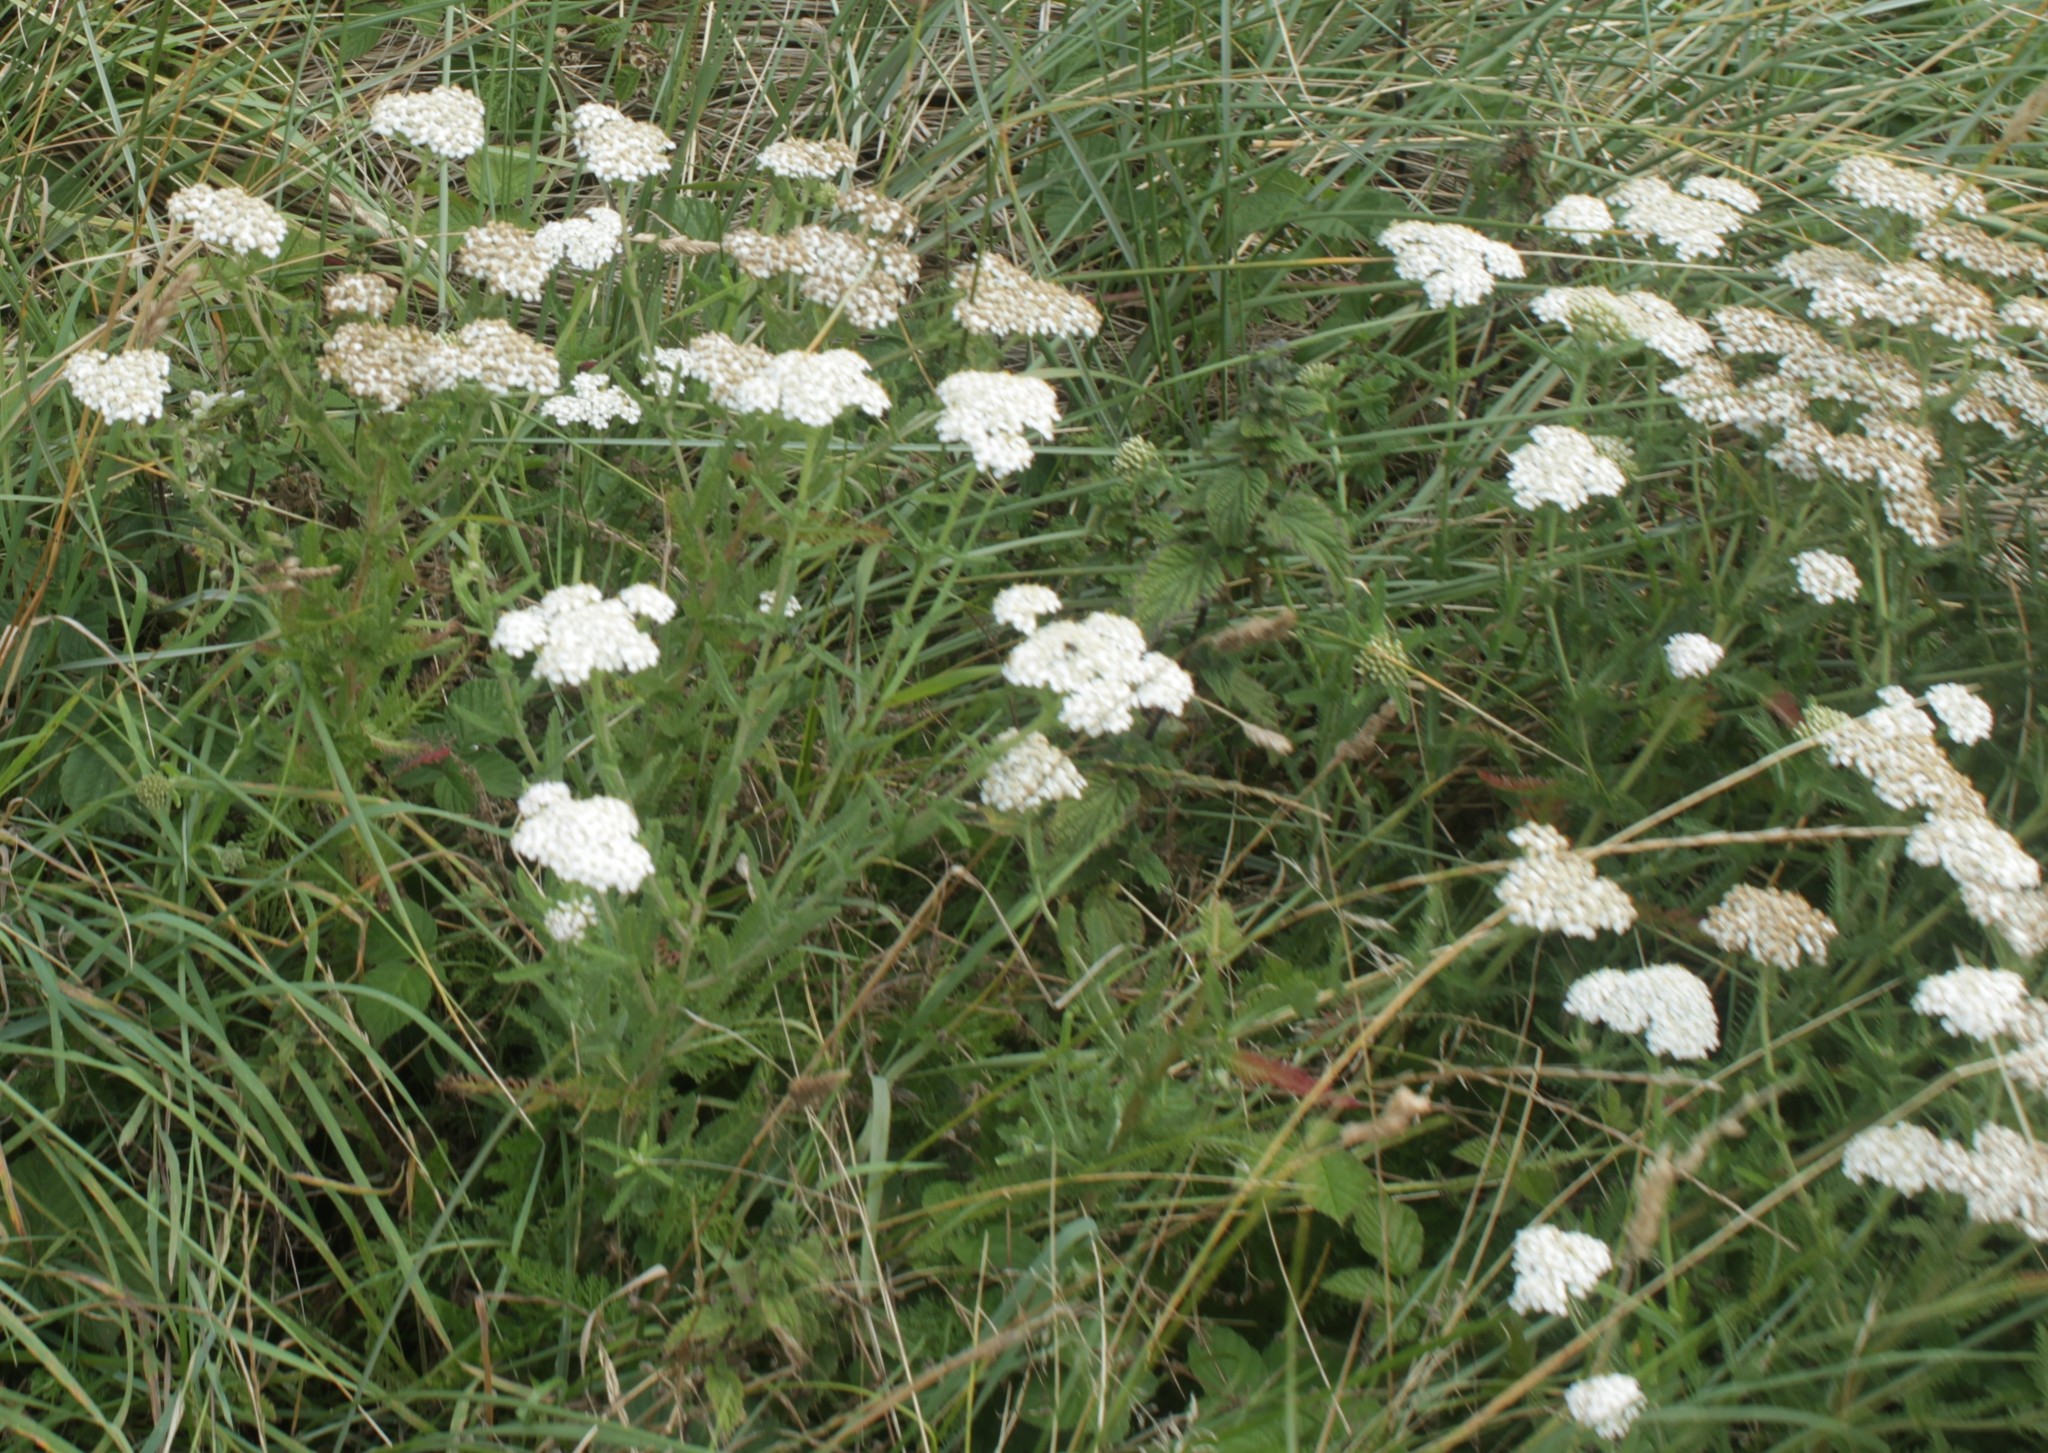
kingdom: Plantae
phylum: Tracheophyta
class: Magnoliopsida
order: Asterales
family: Asteraceae
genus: Achillea
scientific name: Achillea millefolium
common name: Yarrow
